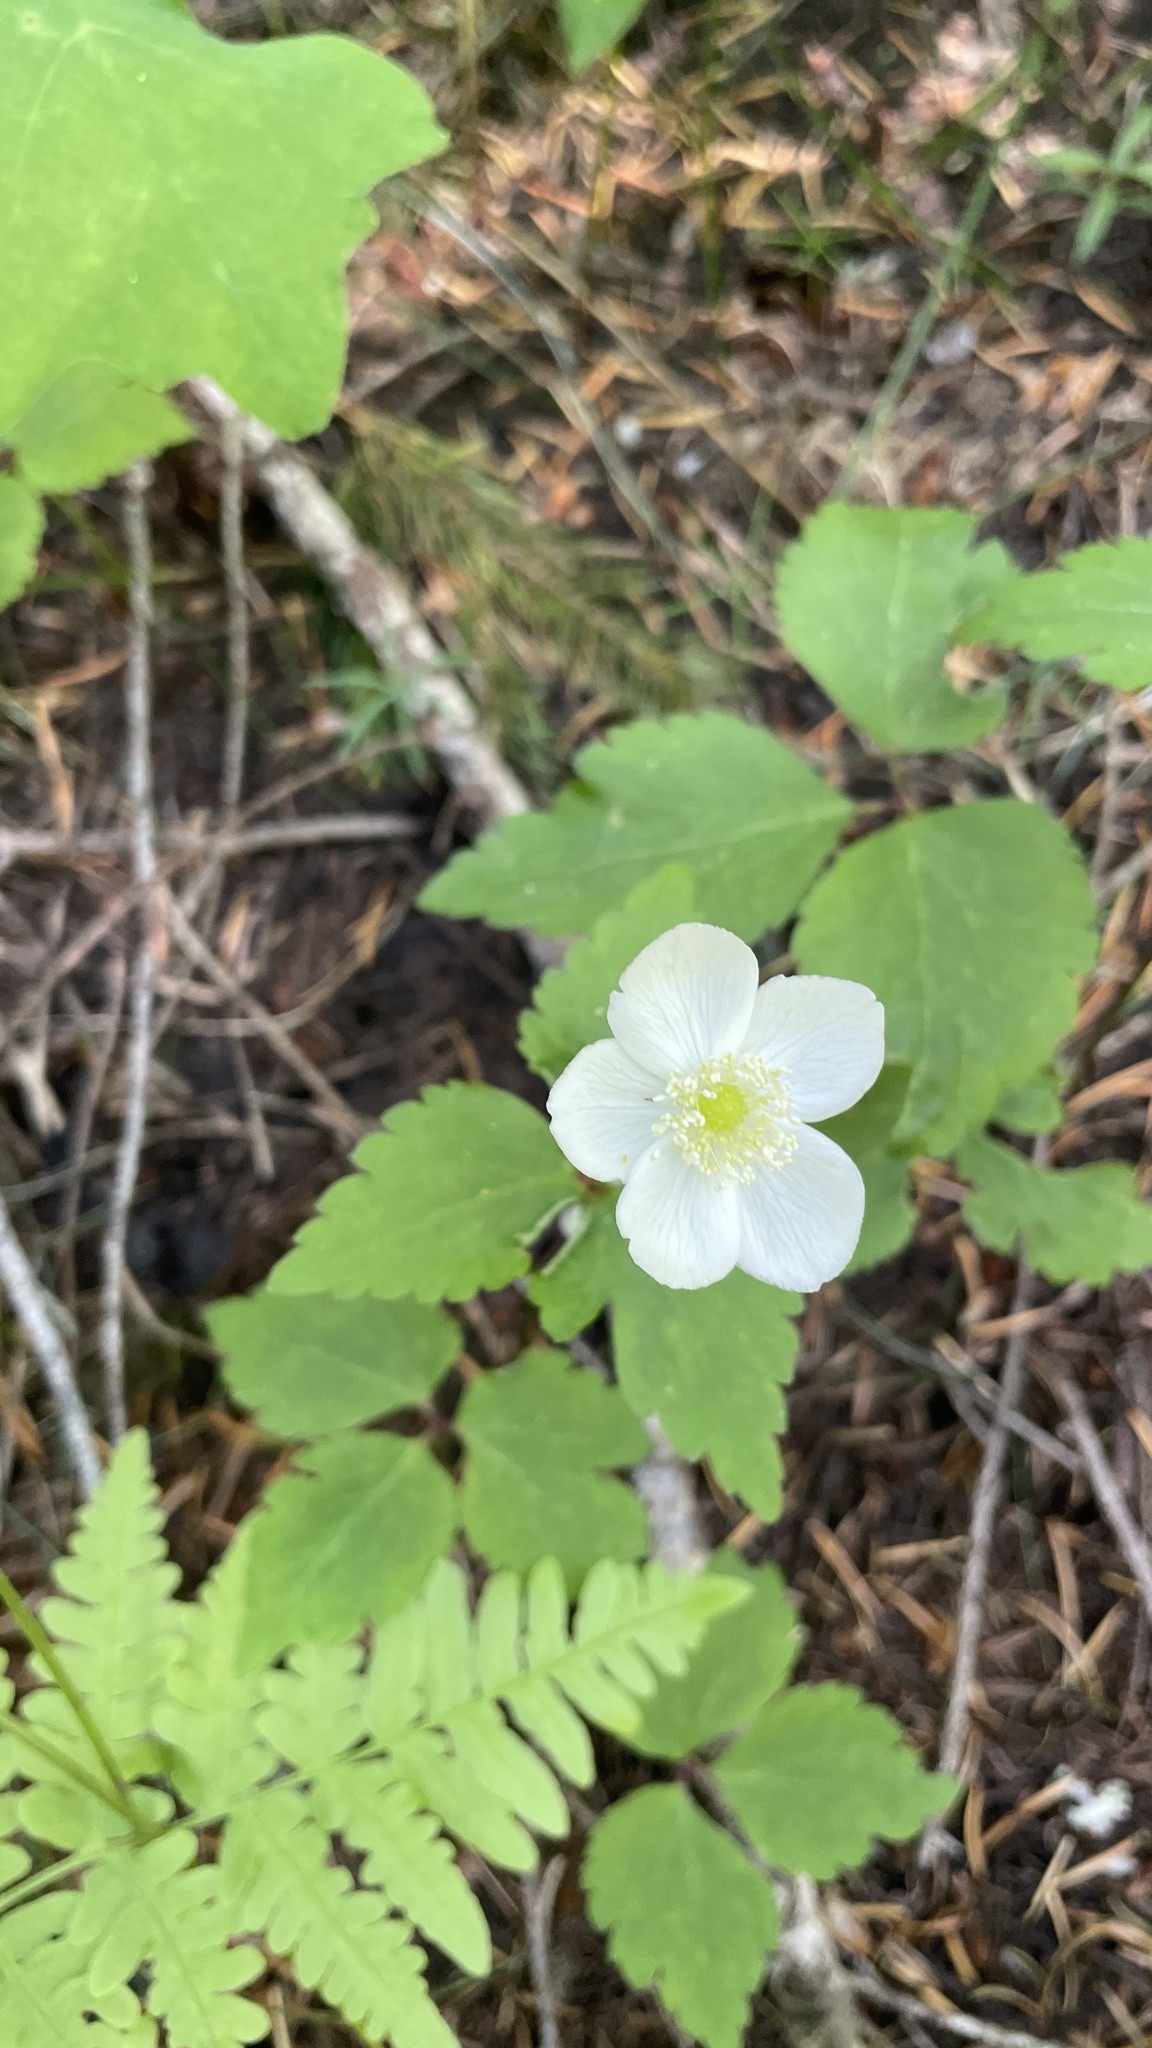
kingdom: Plantae
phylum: Tracheophyta
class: Magnoliopsida
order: Ranunculales
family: Ranunculaceae
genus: Anemonastrum
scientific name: Anemonastrum deltoideum
